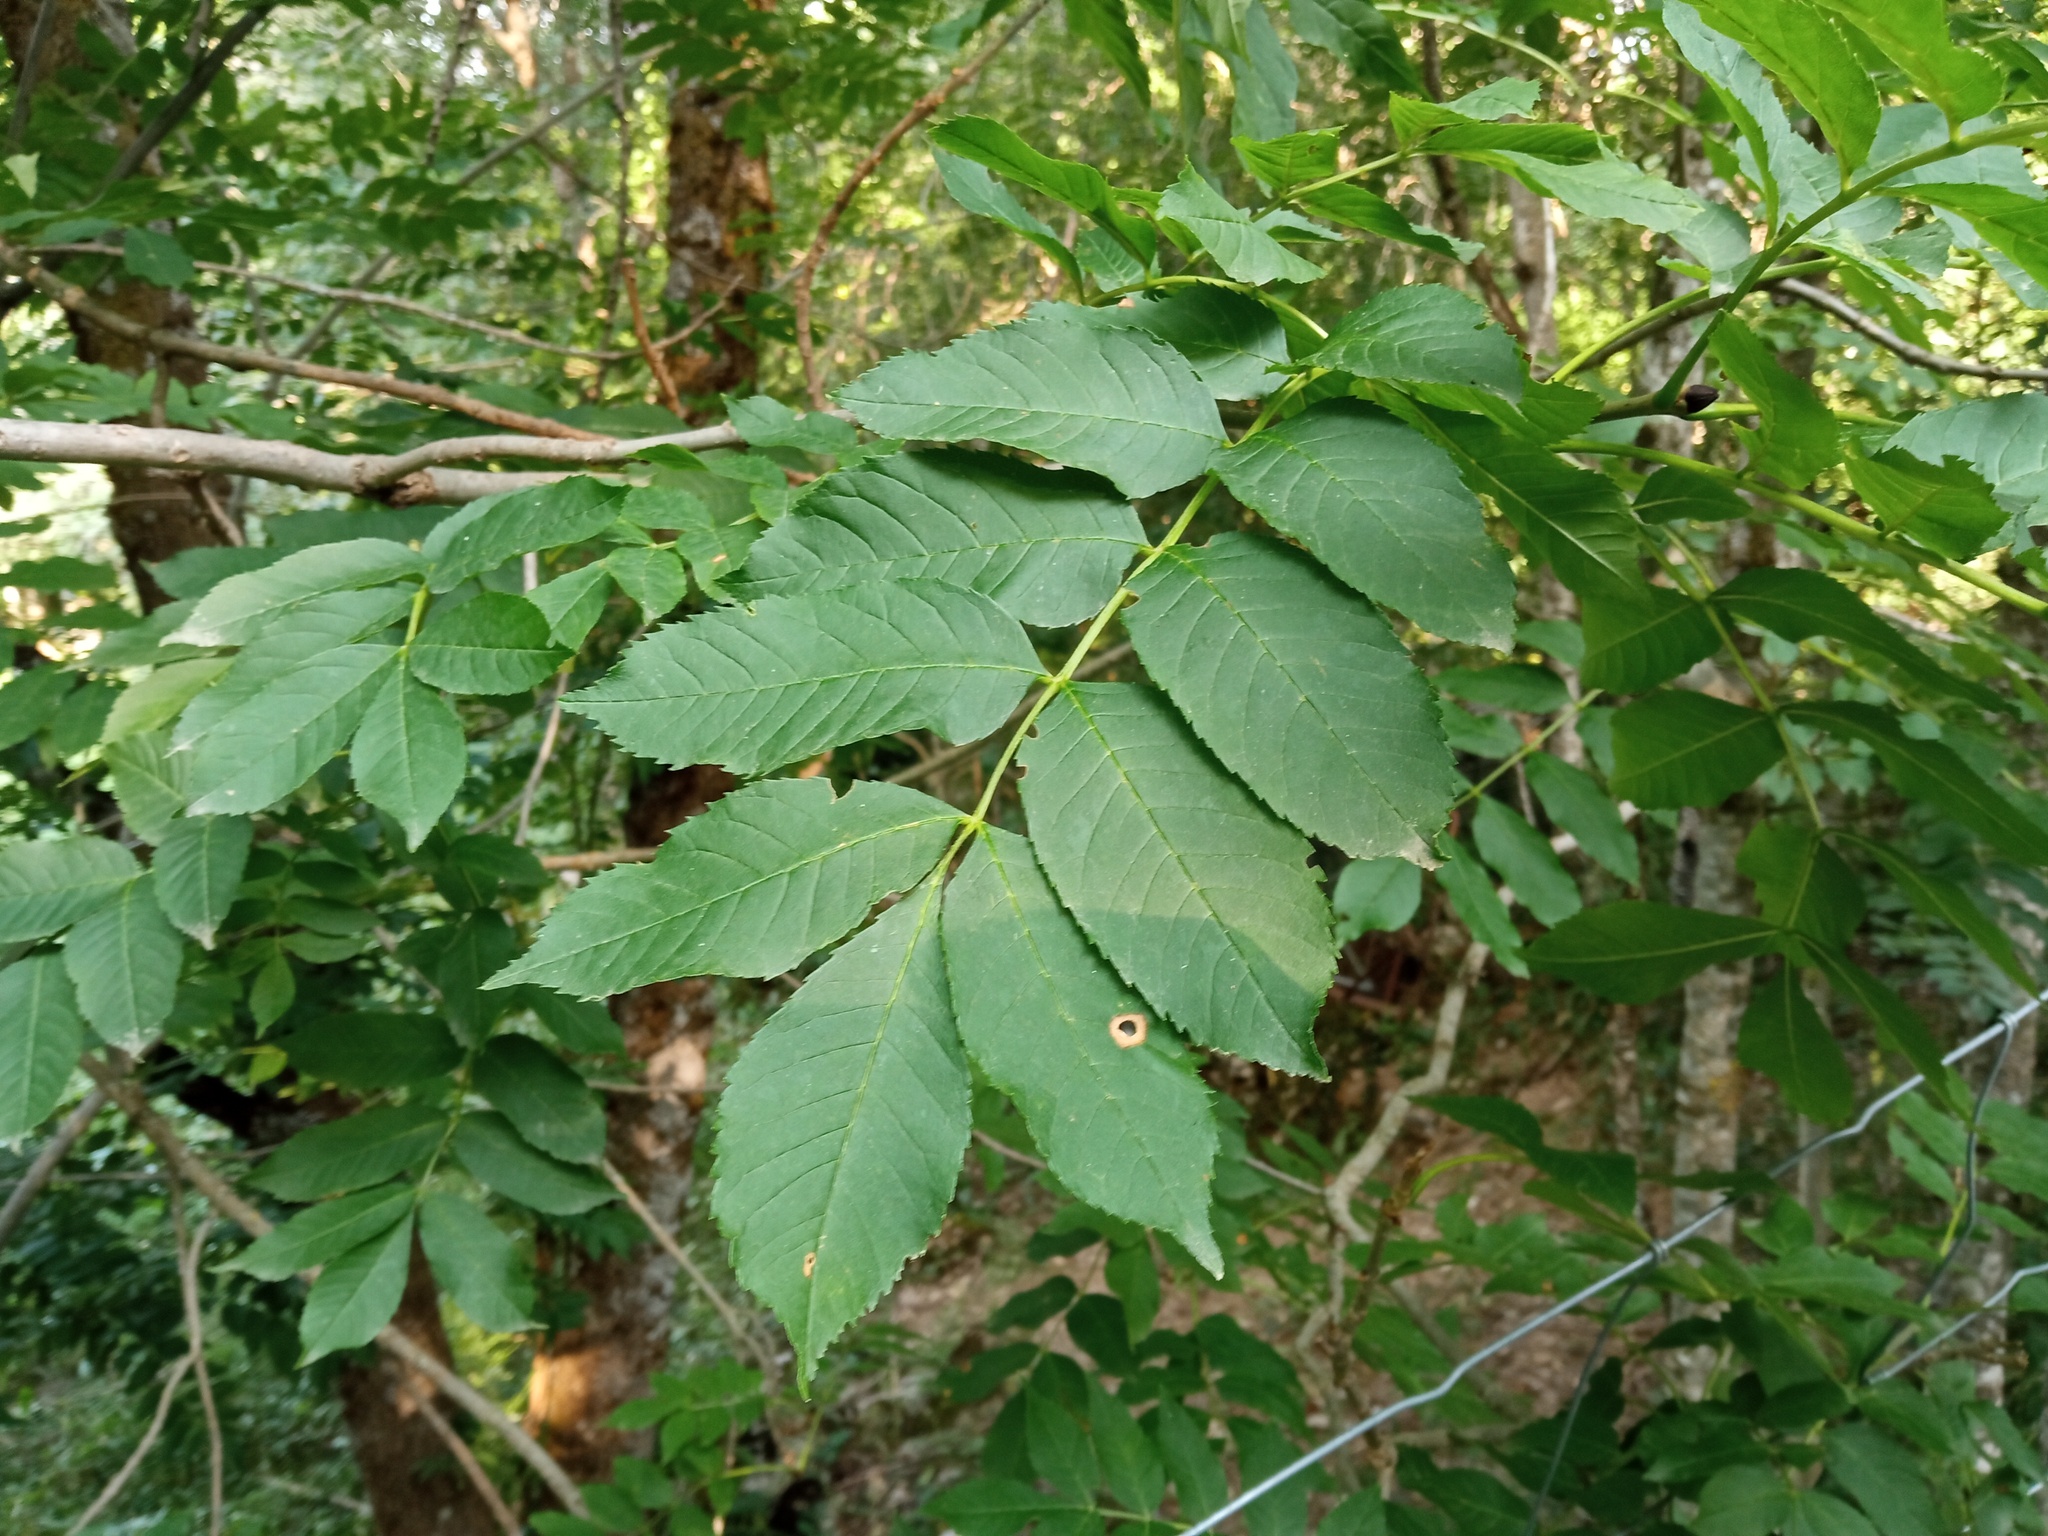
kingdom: Plantae
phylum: Tracheophyta
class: Magnoliopsida
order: Lamiales
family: Oleaceae
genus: Fraxinus
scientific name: Fraxinus excelsior
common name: European ash
